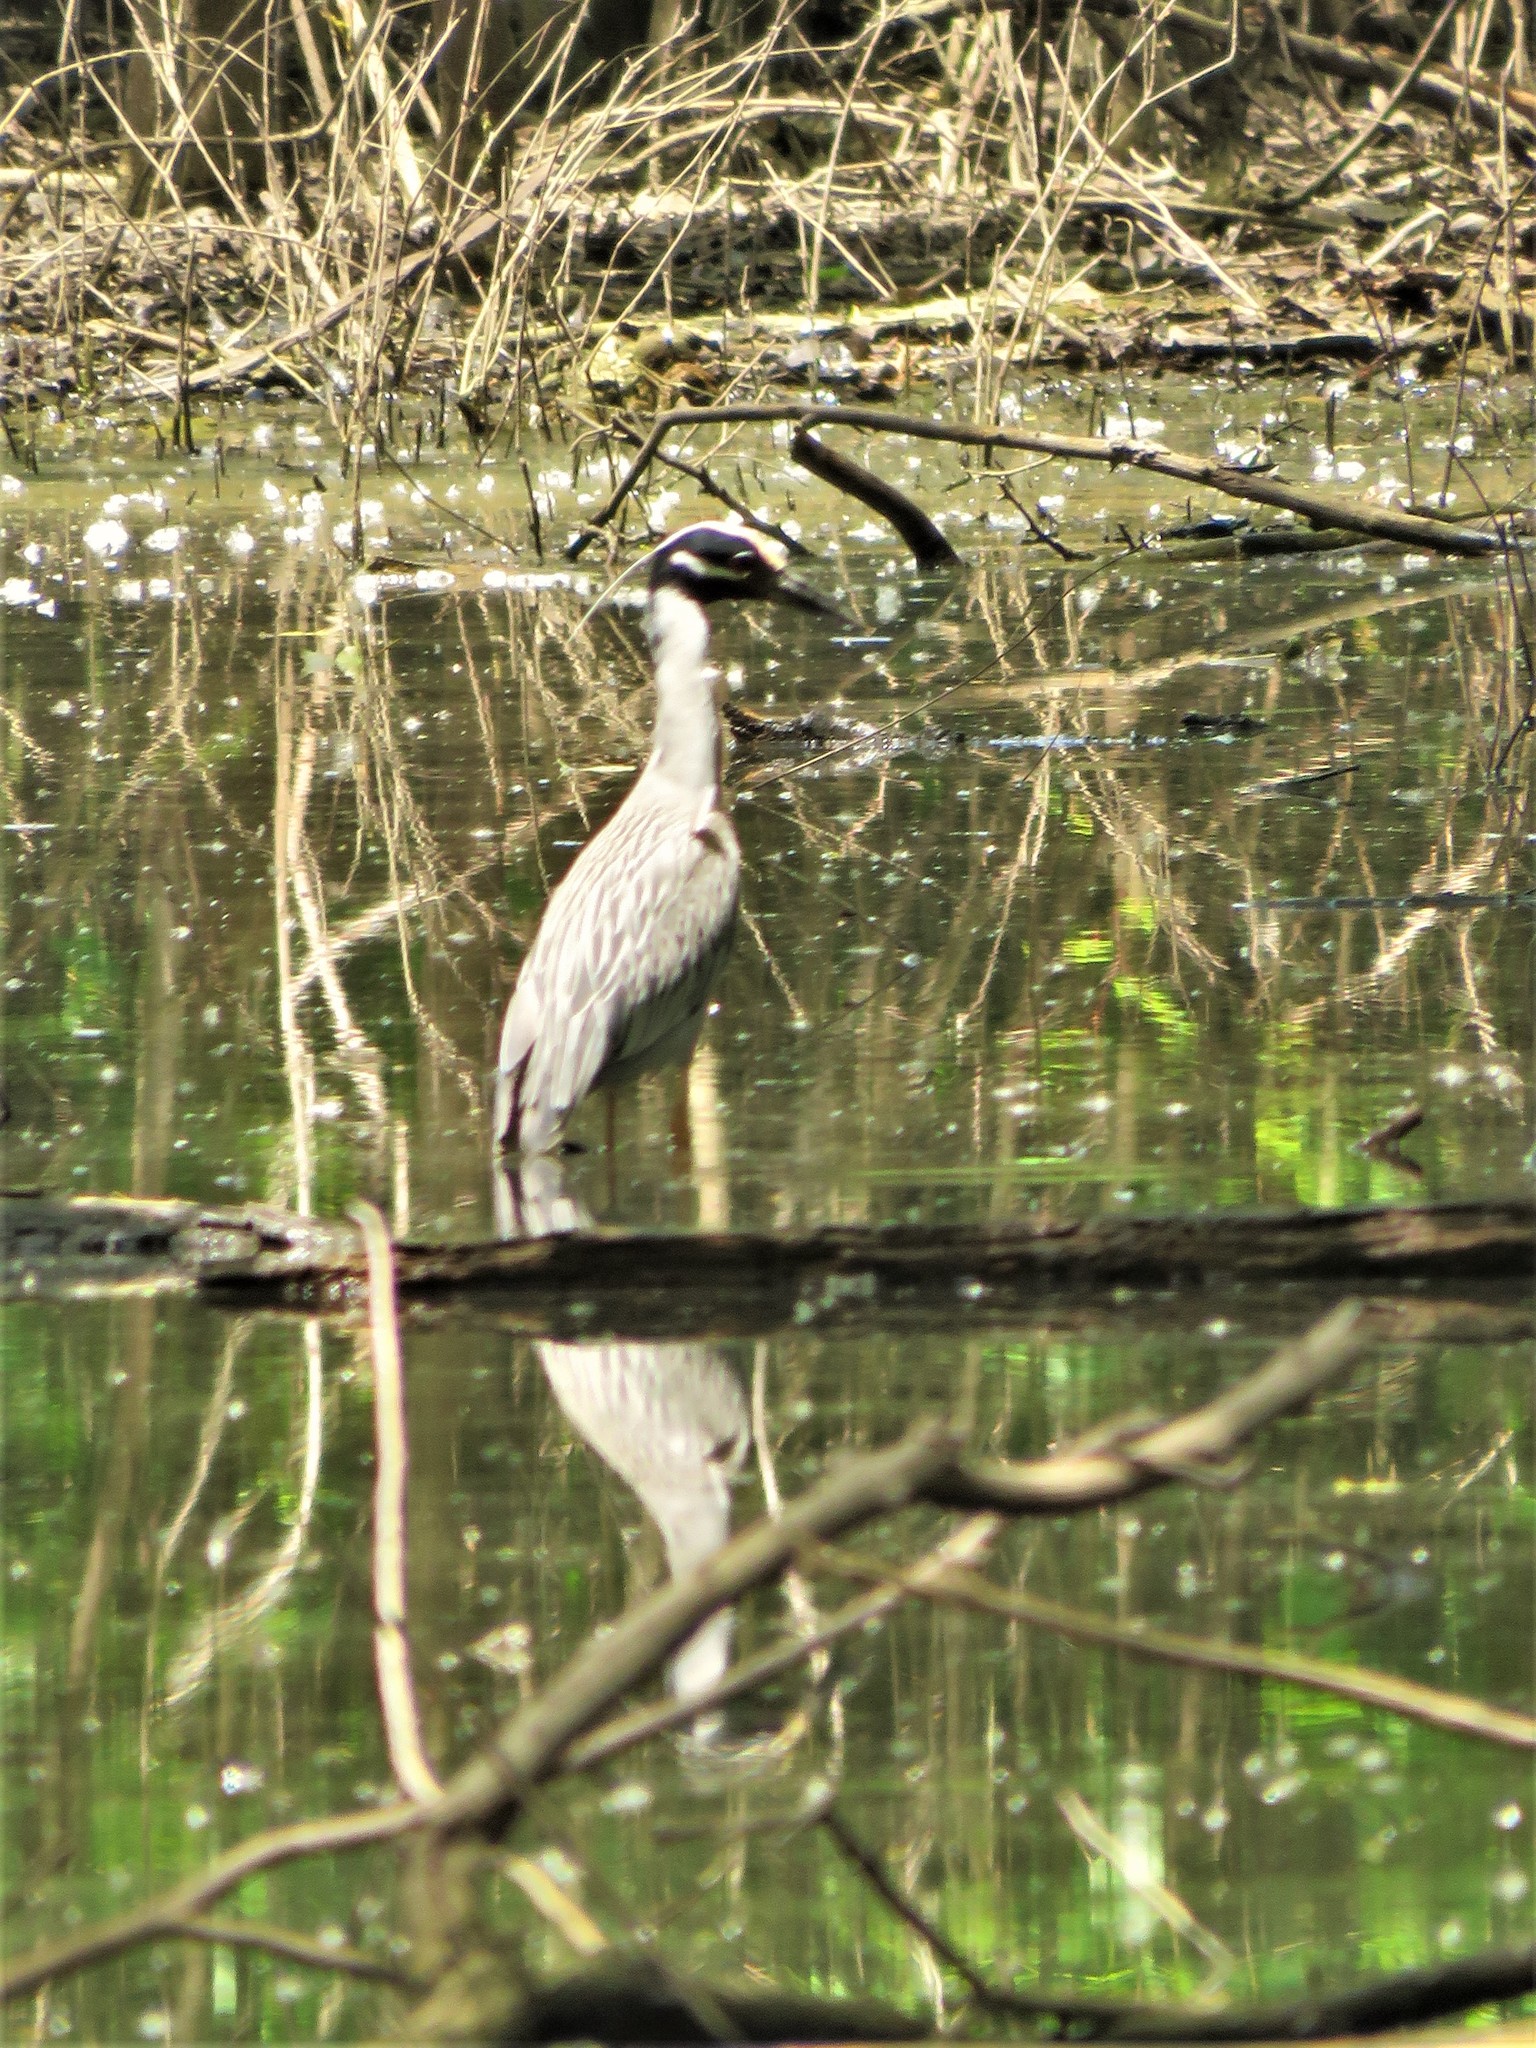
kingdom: Animalia
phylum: Chordata
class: Aves
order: Pelecaniformes
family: Ardeidae
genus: Nyctanassa
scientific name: Nyctanassa violacea
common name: Yellow-crowned night heron
